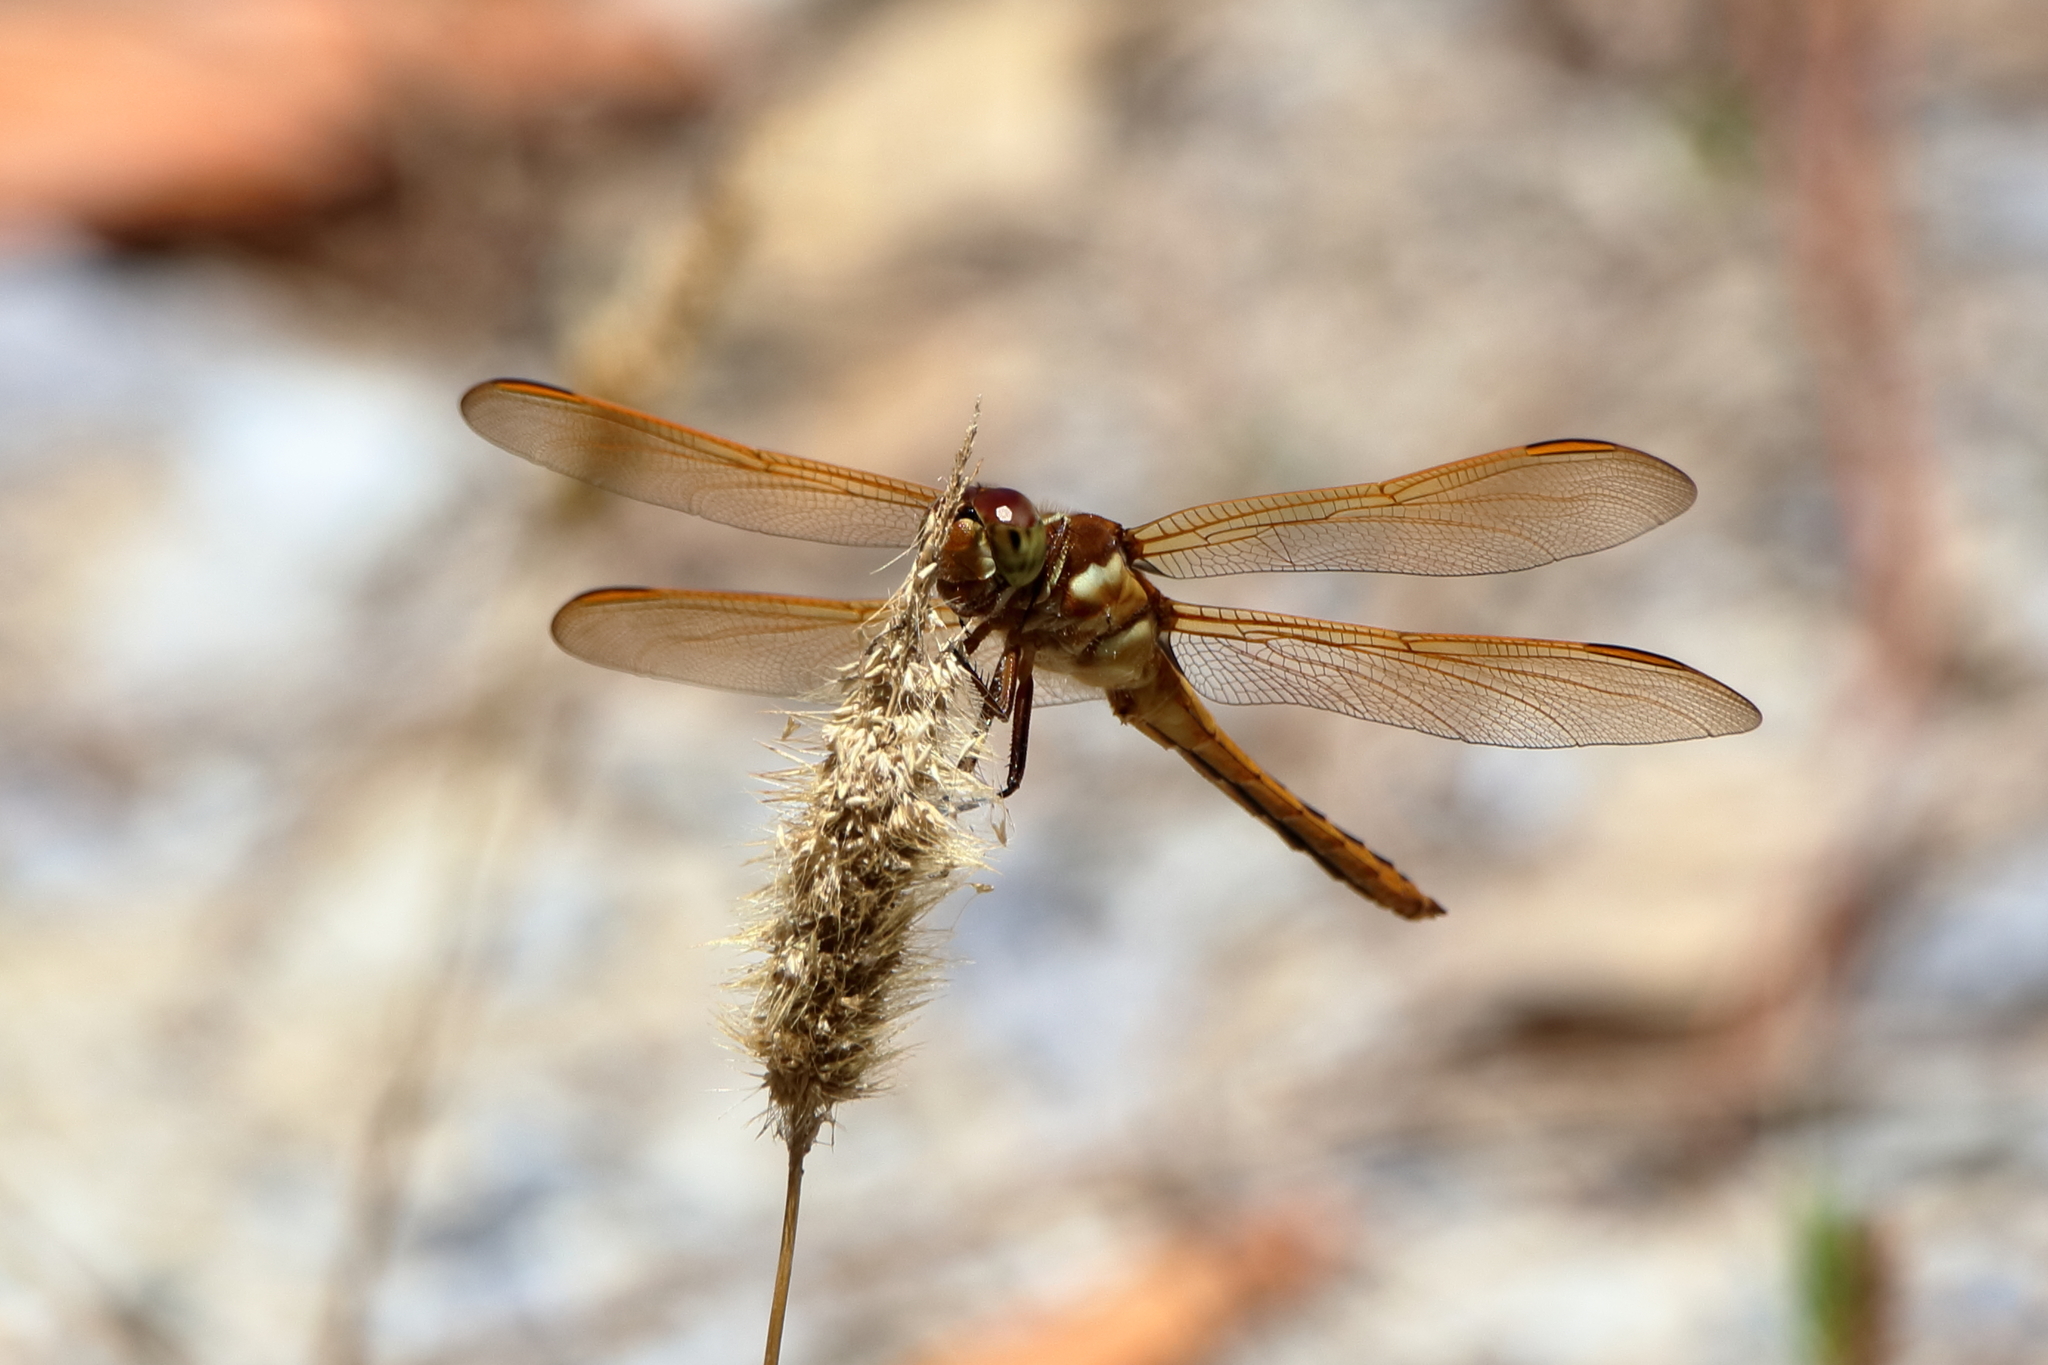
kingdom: Animalia
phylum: Arthropoda
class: Insecta
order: Odonata
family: Libellulidae
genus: Libellula
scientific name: Libellula auripennis
